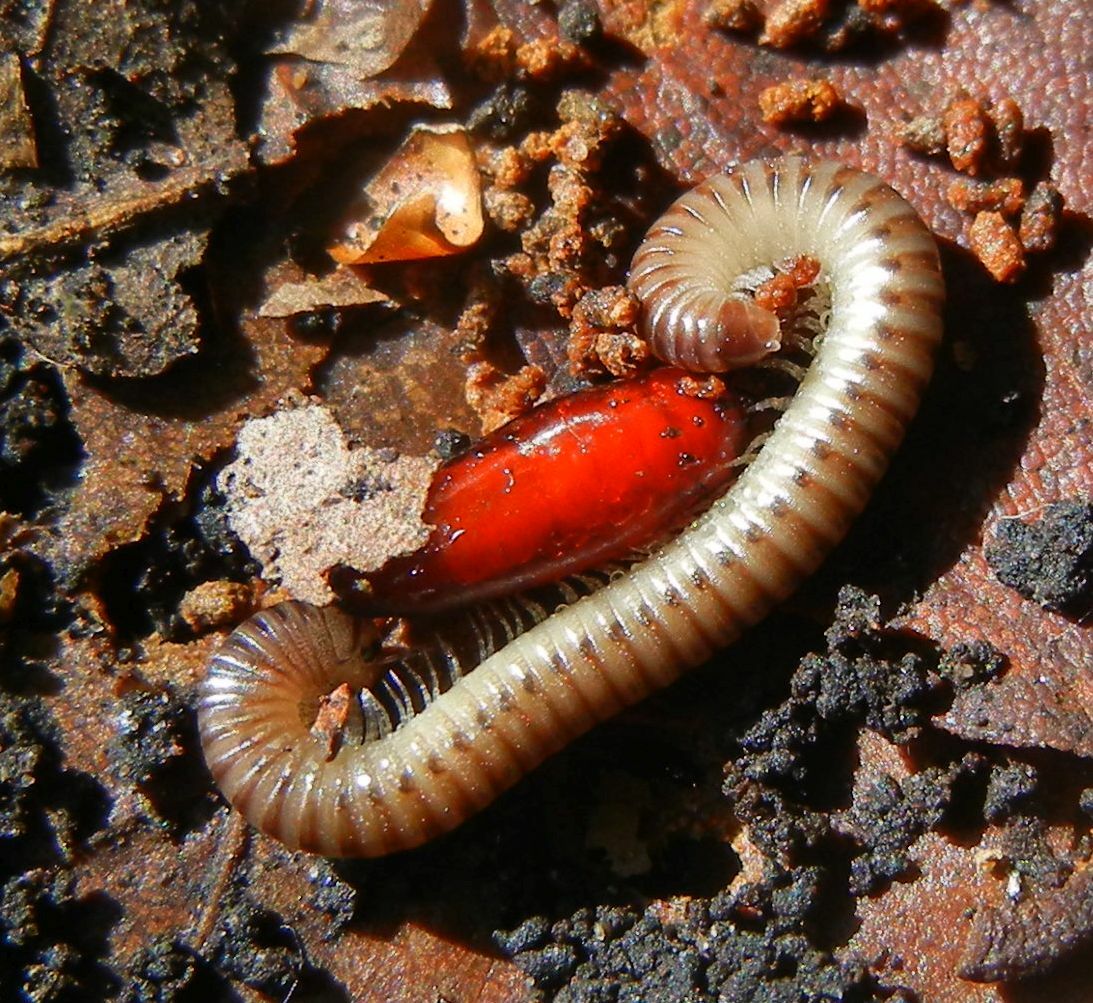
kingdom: Animalia
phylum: Arthropoda
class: Diplopoda
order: Julida
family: Julidae
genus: Cylindroiulus
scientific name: Cylindroiulus punctatus
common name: Blunt-tailed millipede
